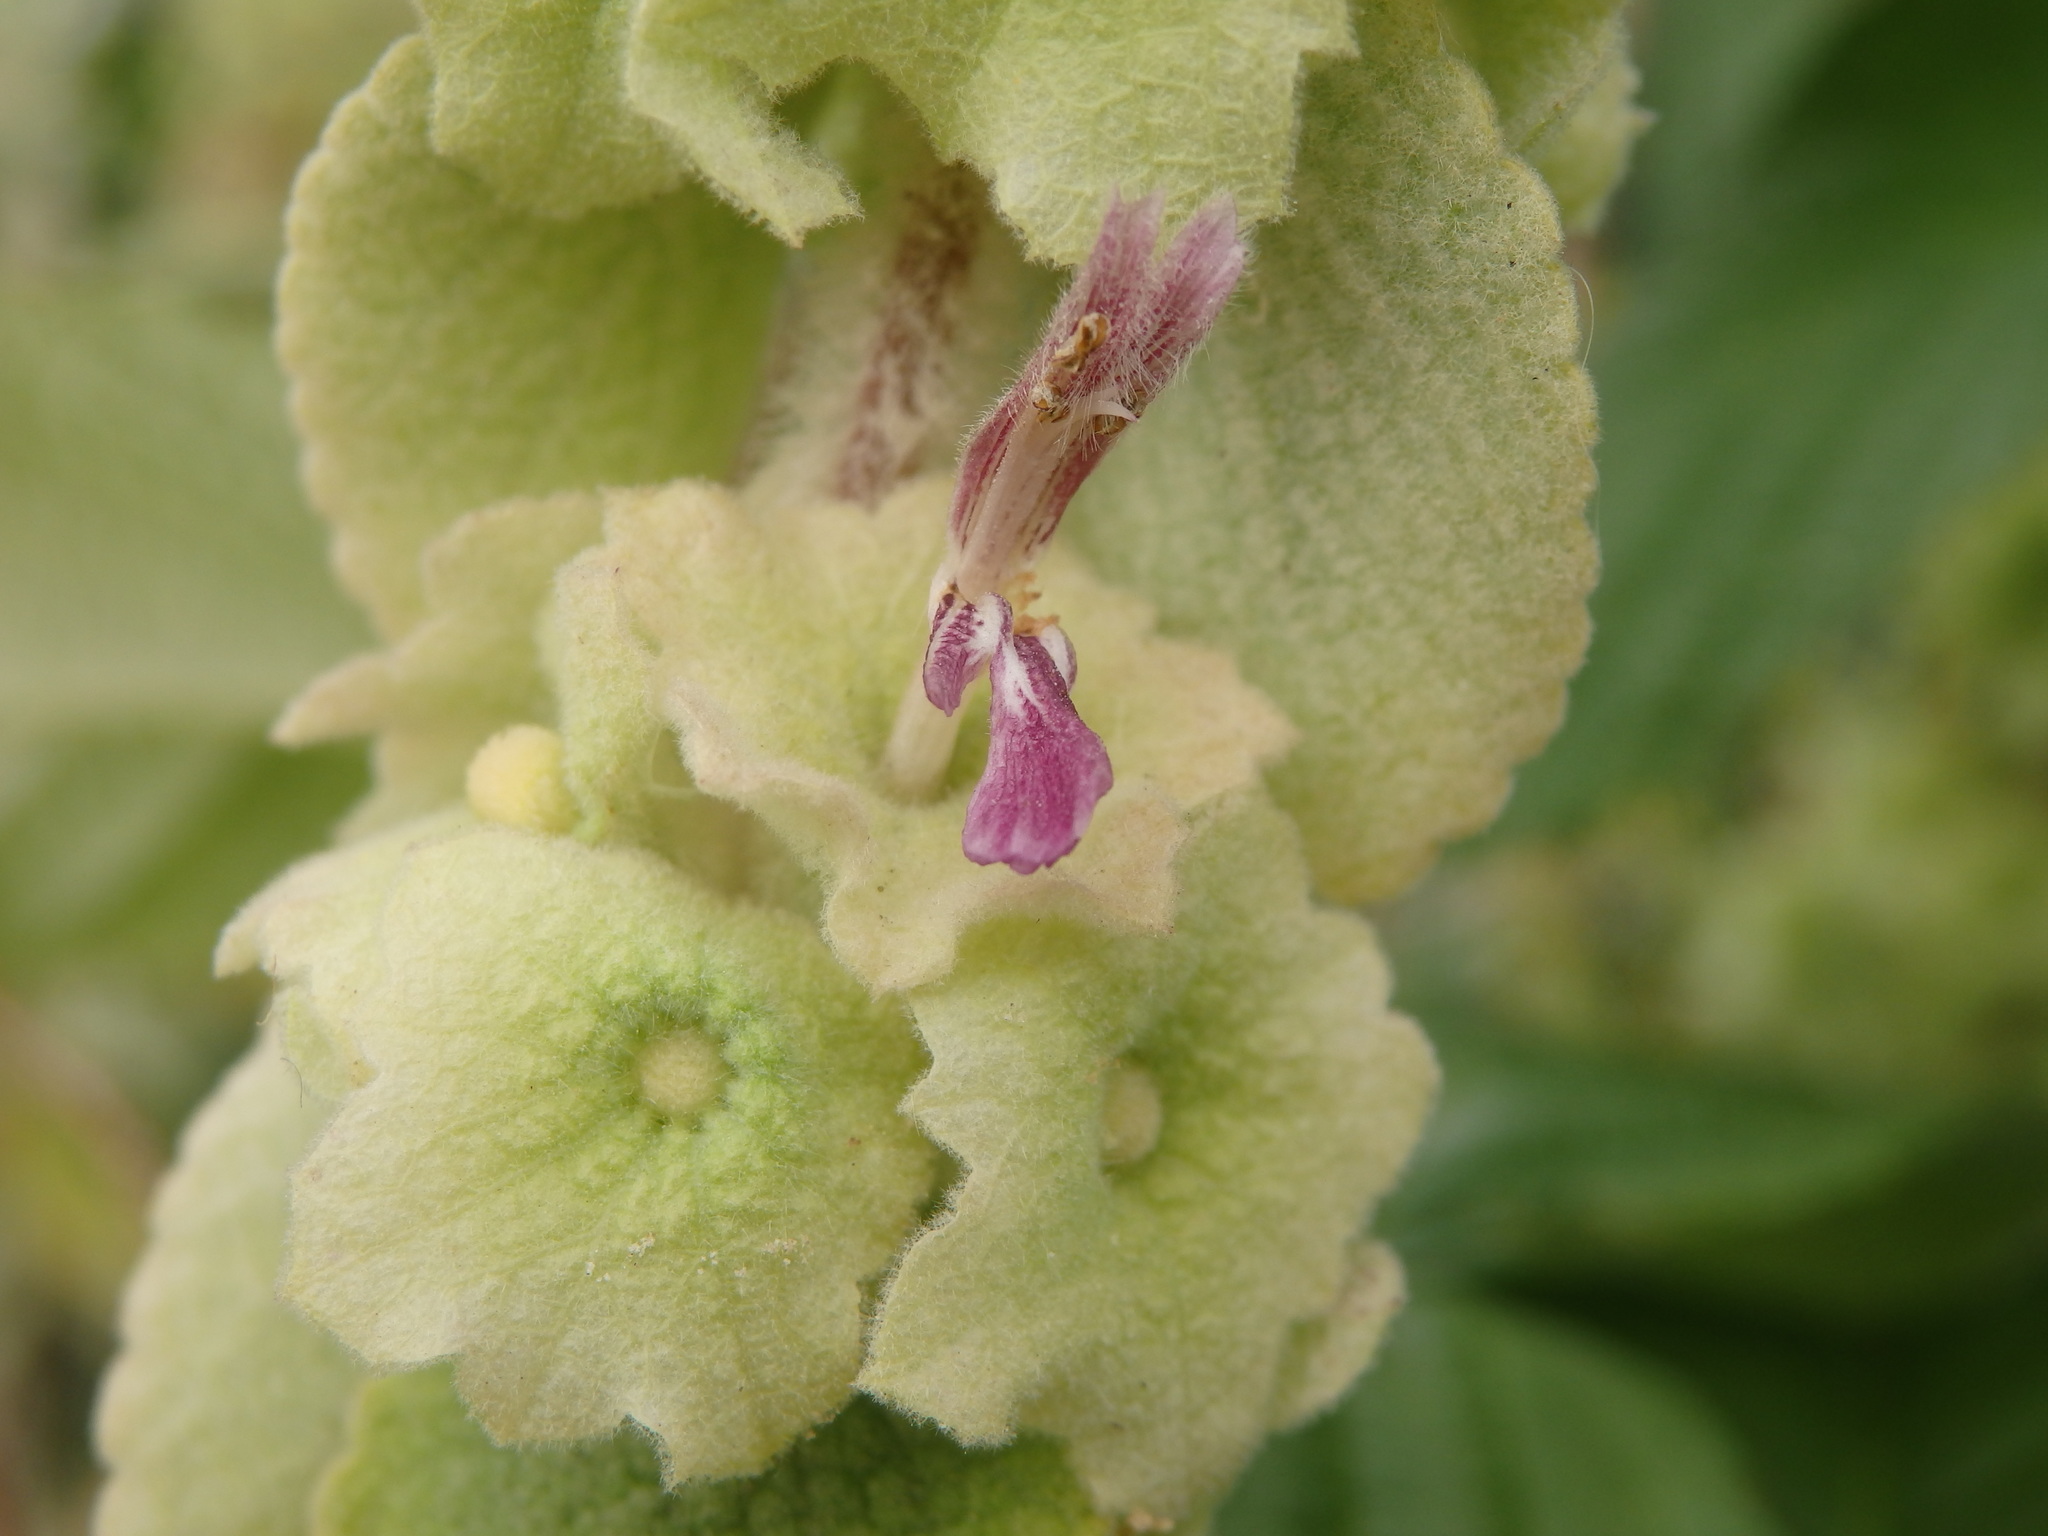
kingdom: Plantae
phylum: Tracheophyta
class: Magnoliopsida
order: Lamiales
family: Lamiaceae
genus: Pseudodictamnus
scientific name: Pseudodictamnus hirsutus
